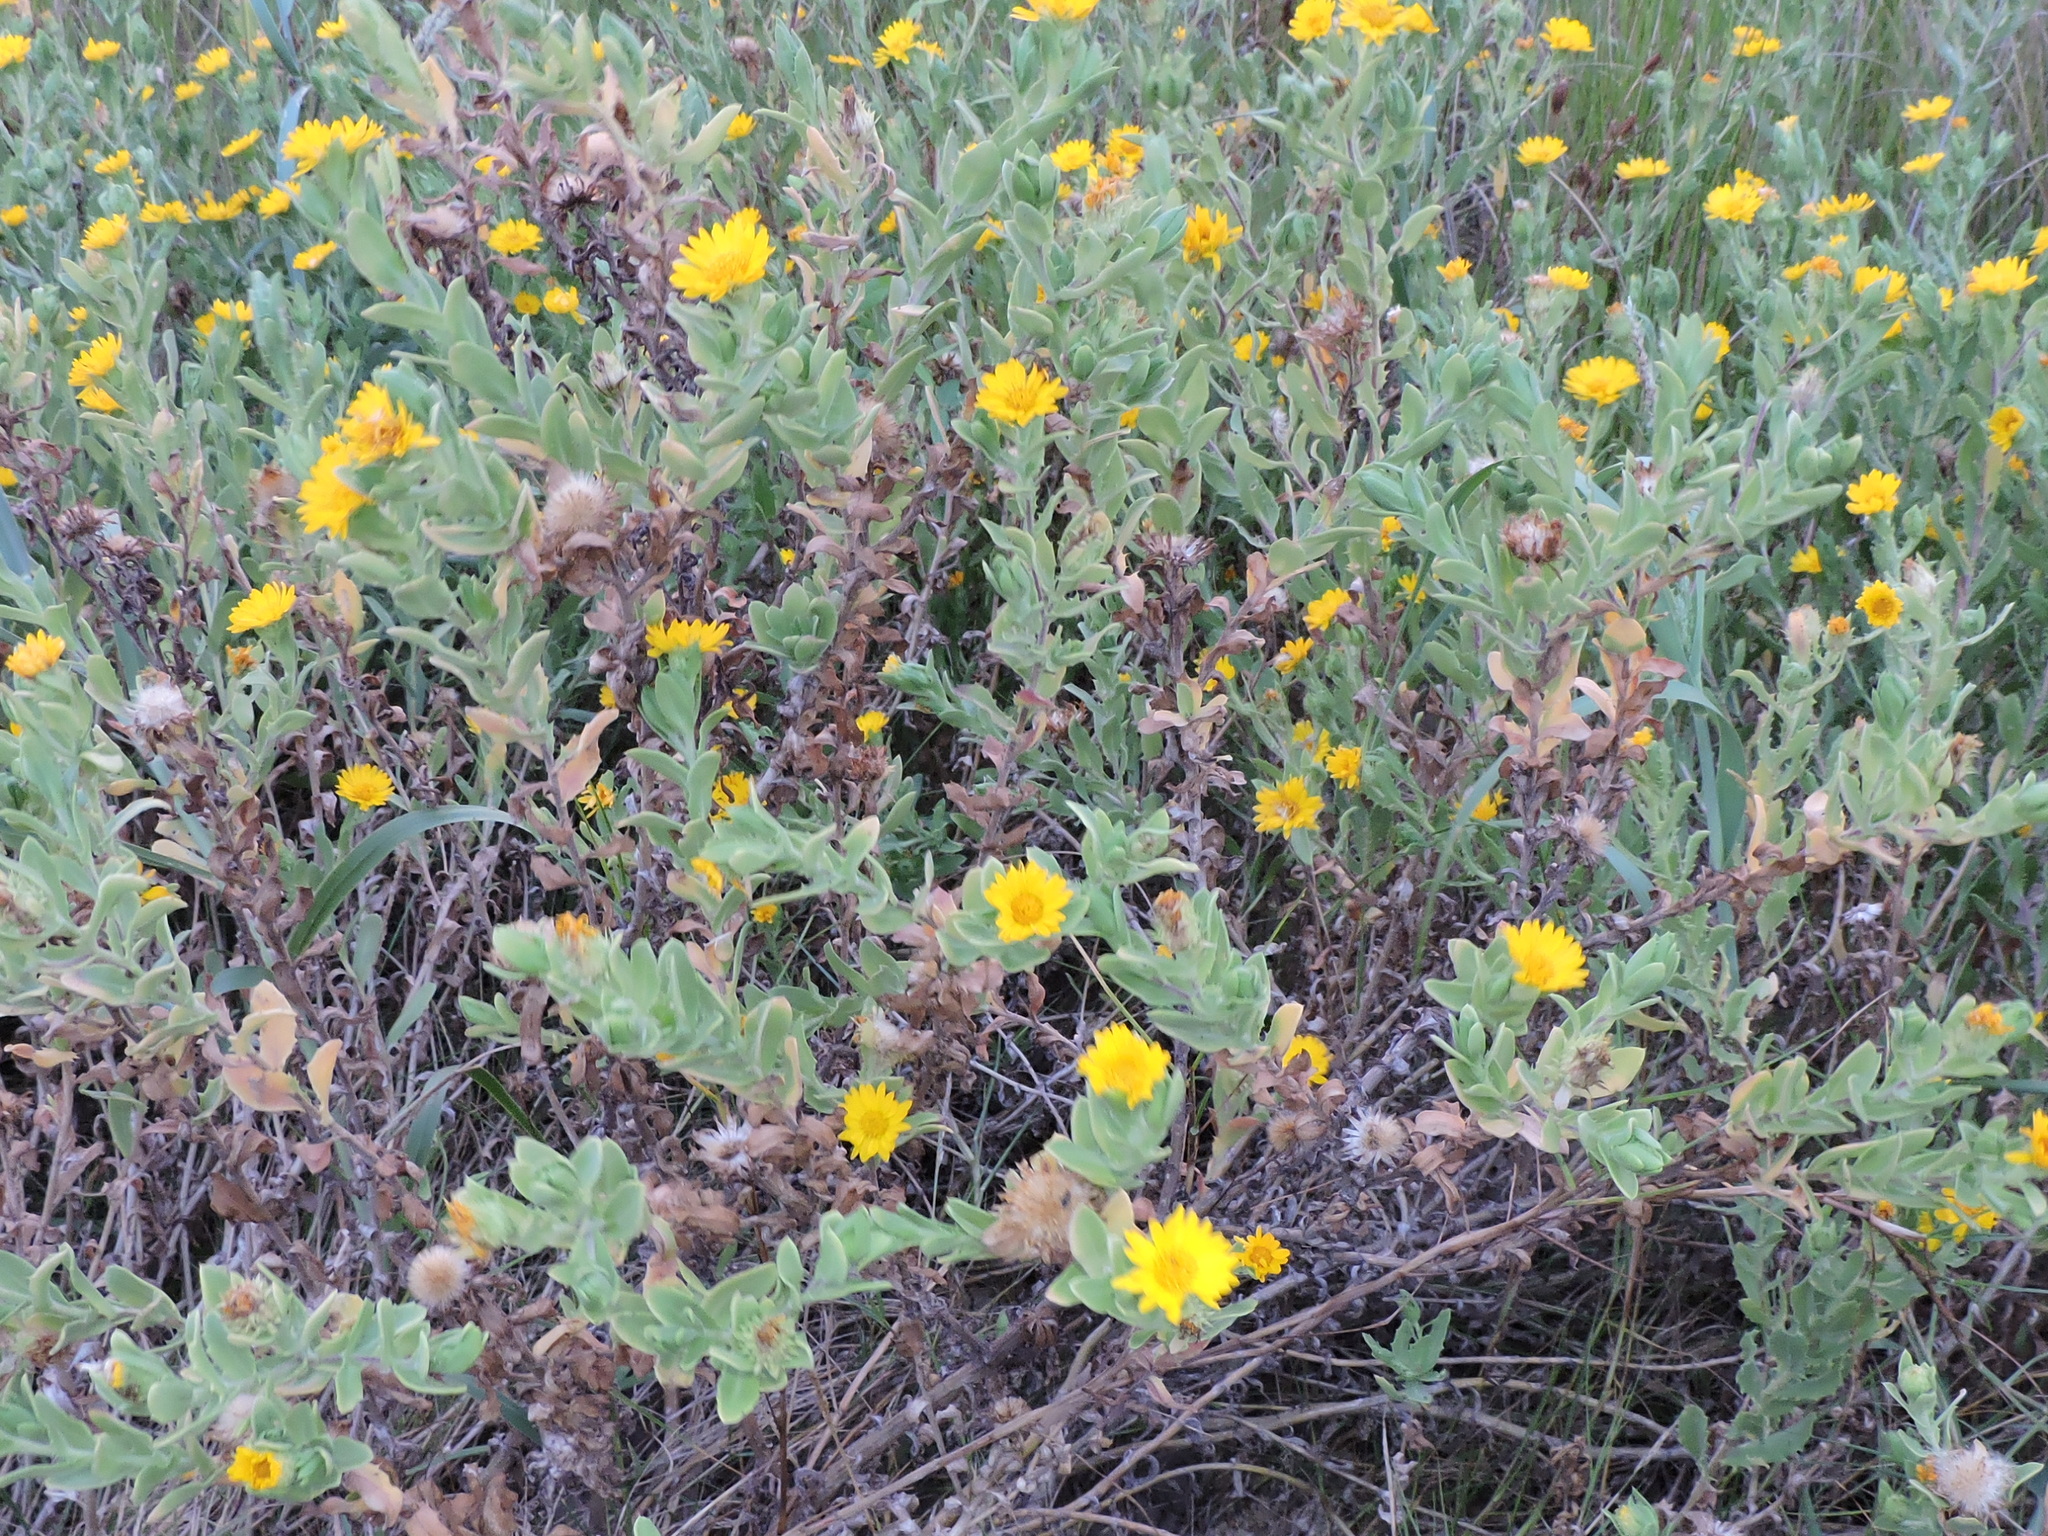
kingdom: Plantae
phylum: Tracheophyta
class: Magnoliopsida
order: Asterales
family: Asteraceae
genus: Rayjacksonia
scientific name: Rayjacksonia phyllocephala
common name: Gulf coast camphor daisy
